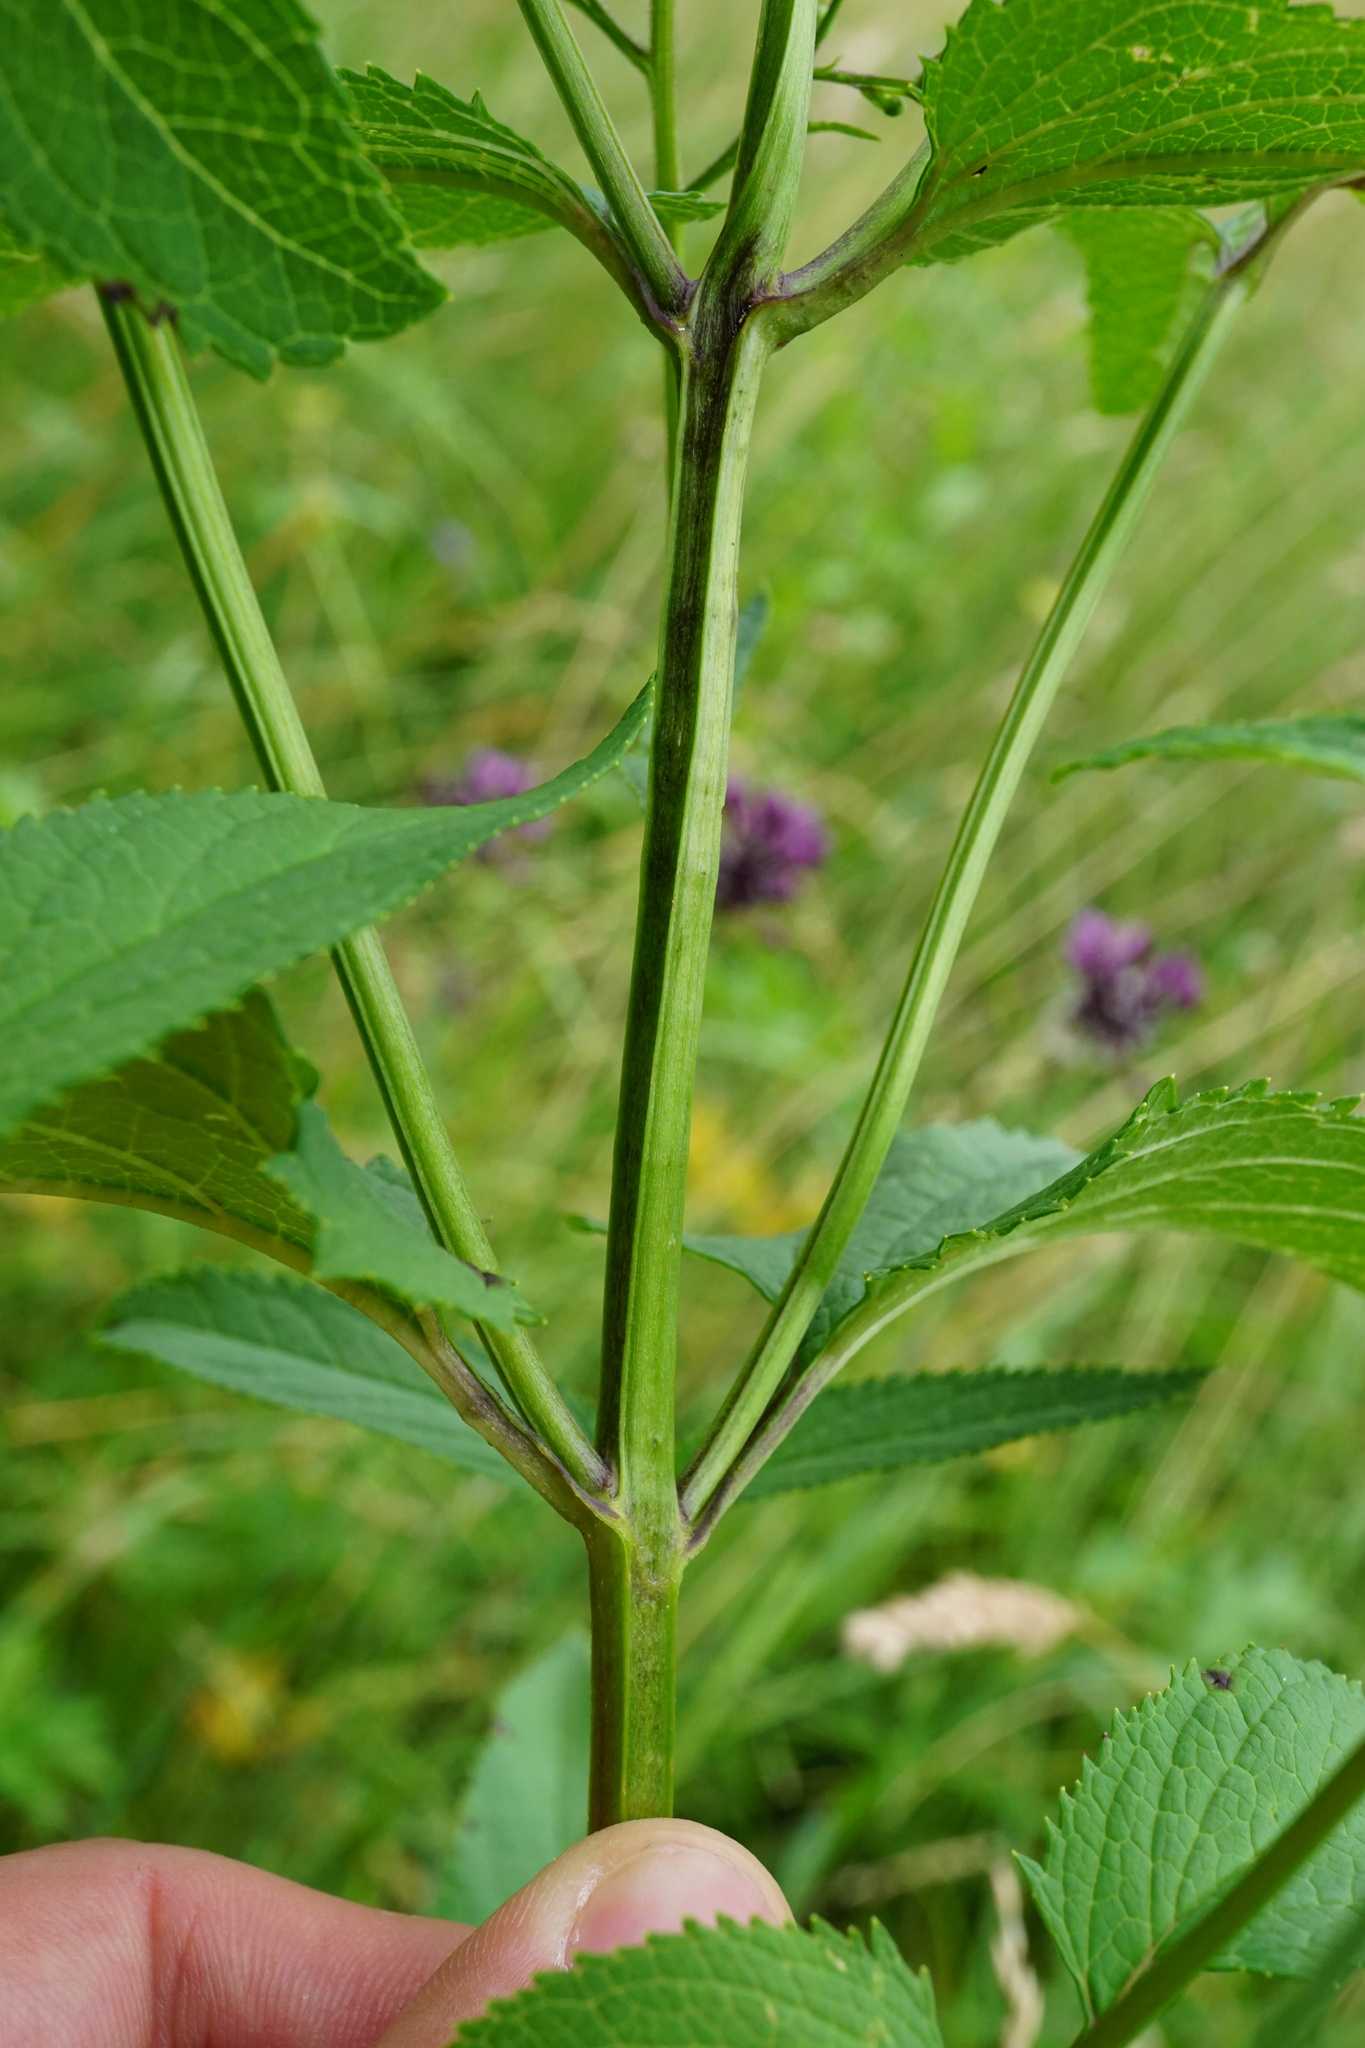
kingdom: Plantae
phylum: Tracheophyta
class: Magnoliopsida
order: Lamiales
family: Scrophulariaceae
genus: Scrophularia
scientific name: Scrophularia nodosa
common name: Common figwort
